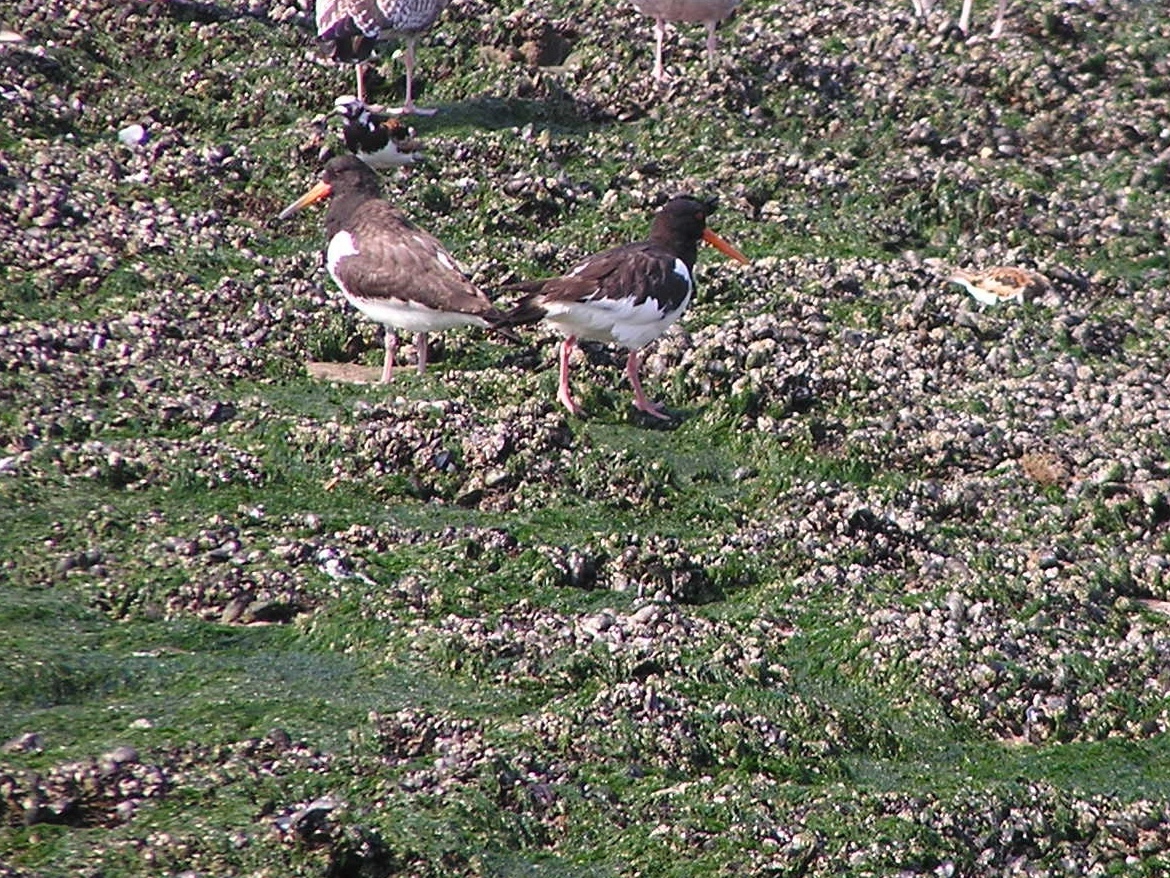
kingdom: Animalia
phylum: Chordata
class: Aves
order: Charadriiformes
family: Haematopodidae
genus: Haematopus
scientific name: Haematopus ostralegus
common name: Eurasian oystercatcher
